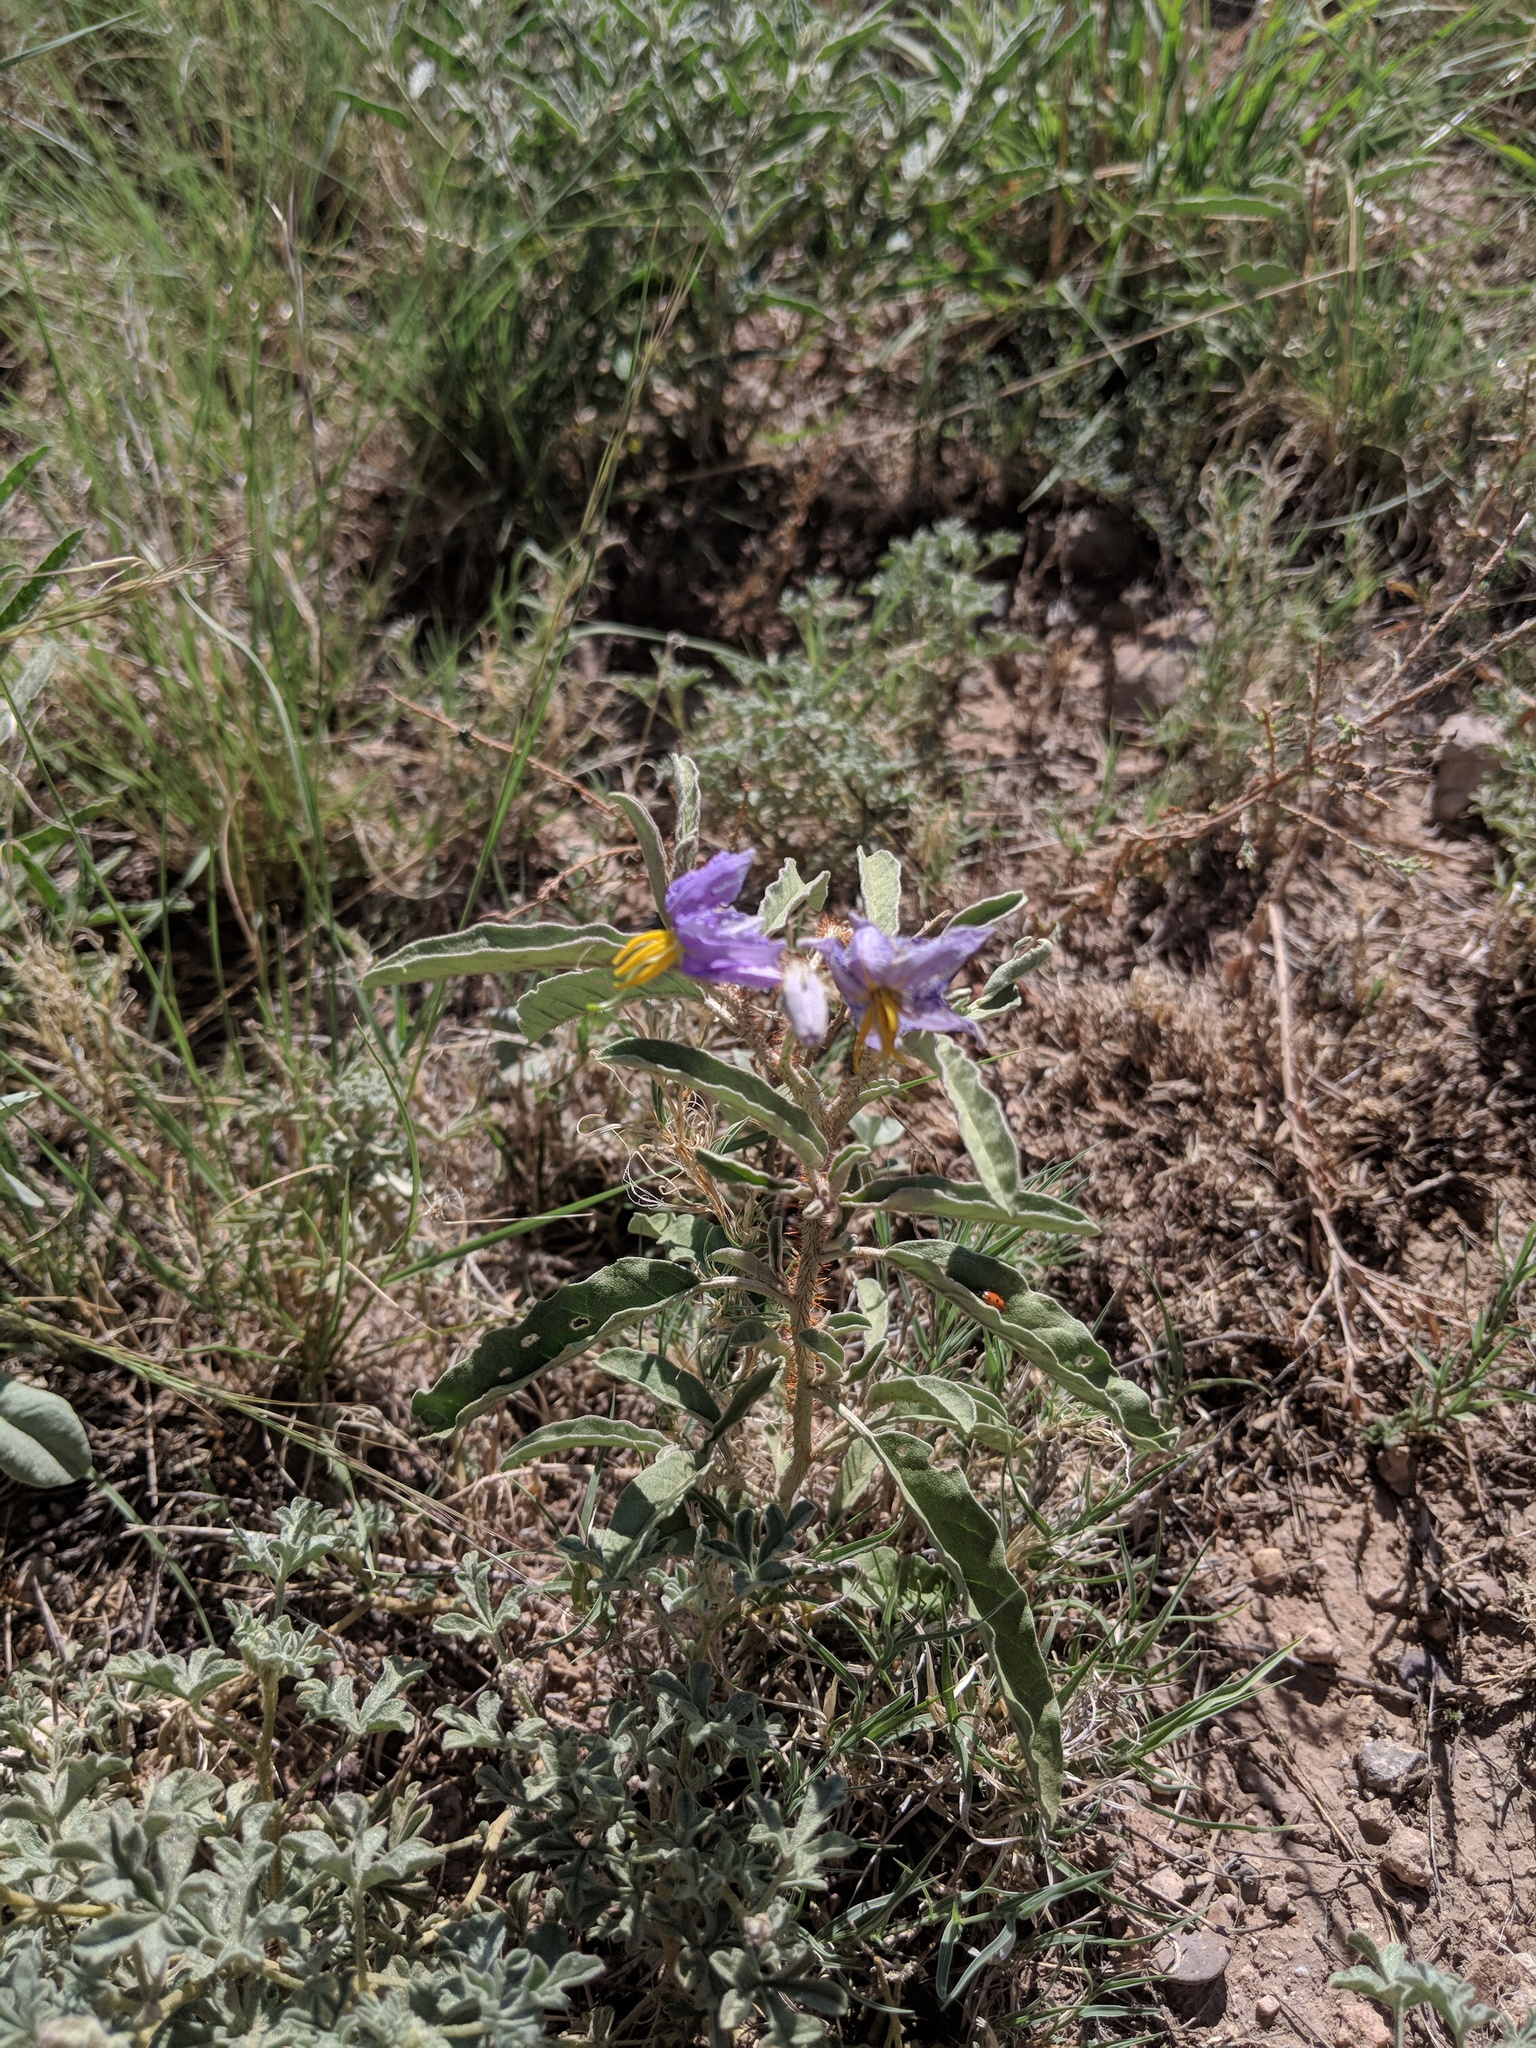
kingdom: Plantae
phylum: Tracheophyta
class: Magnoliopsida
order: Solanales
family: Solanaceae
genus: Solanum
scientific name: Solanum elaeagnifolium
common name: Silverleaf nightshade
